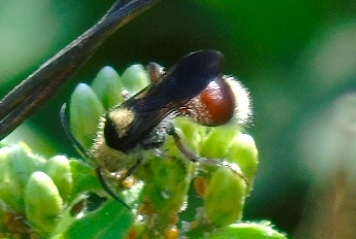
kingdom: Animalia
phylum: Arthropoda
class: Insecta
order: Hymenoptera
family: Mutillidae
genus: Dasymutilla
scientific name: Dasymutilla
